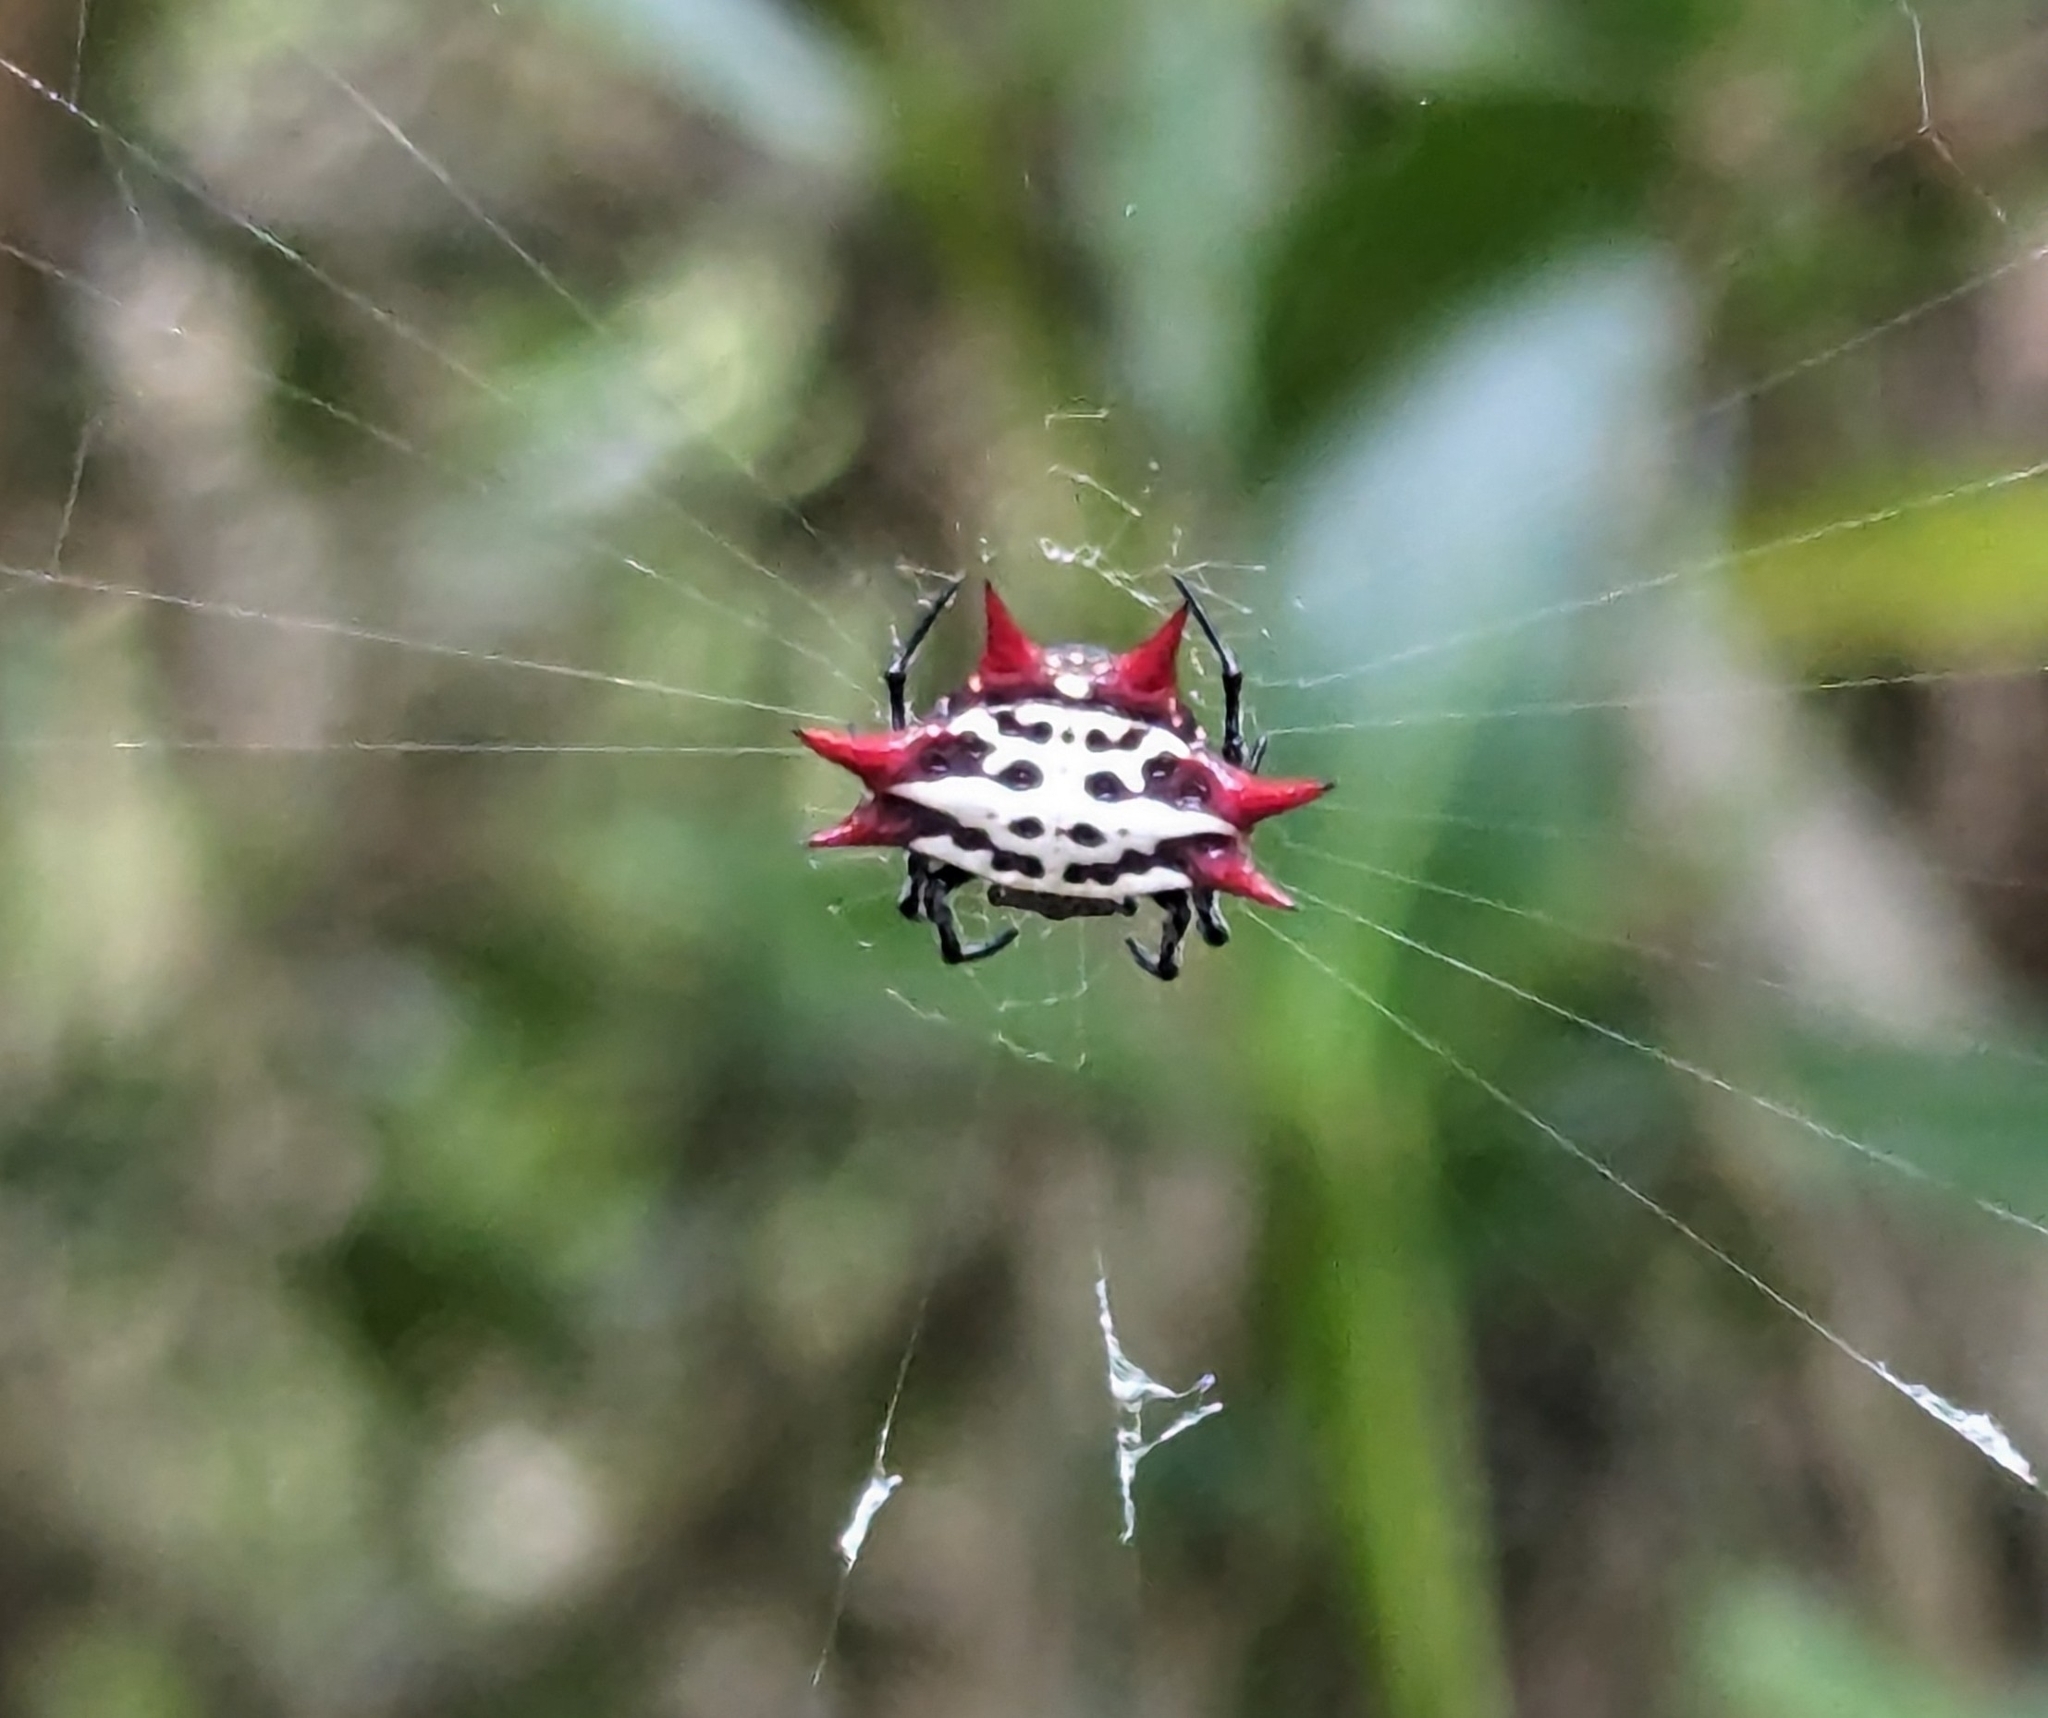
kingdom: Animalia
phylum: Arthropoda
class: Arachnida
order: Araneae
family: Araneidae
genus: Gasteracantha
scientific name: Gasteracantha cancriformis
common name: Orb weavers
